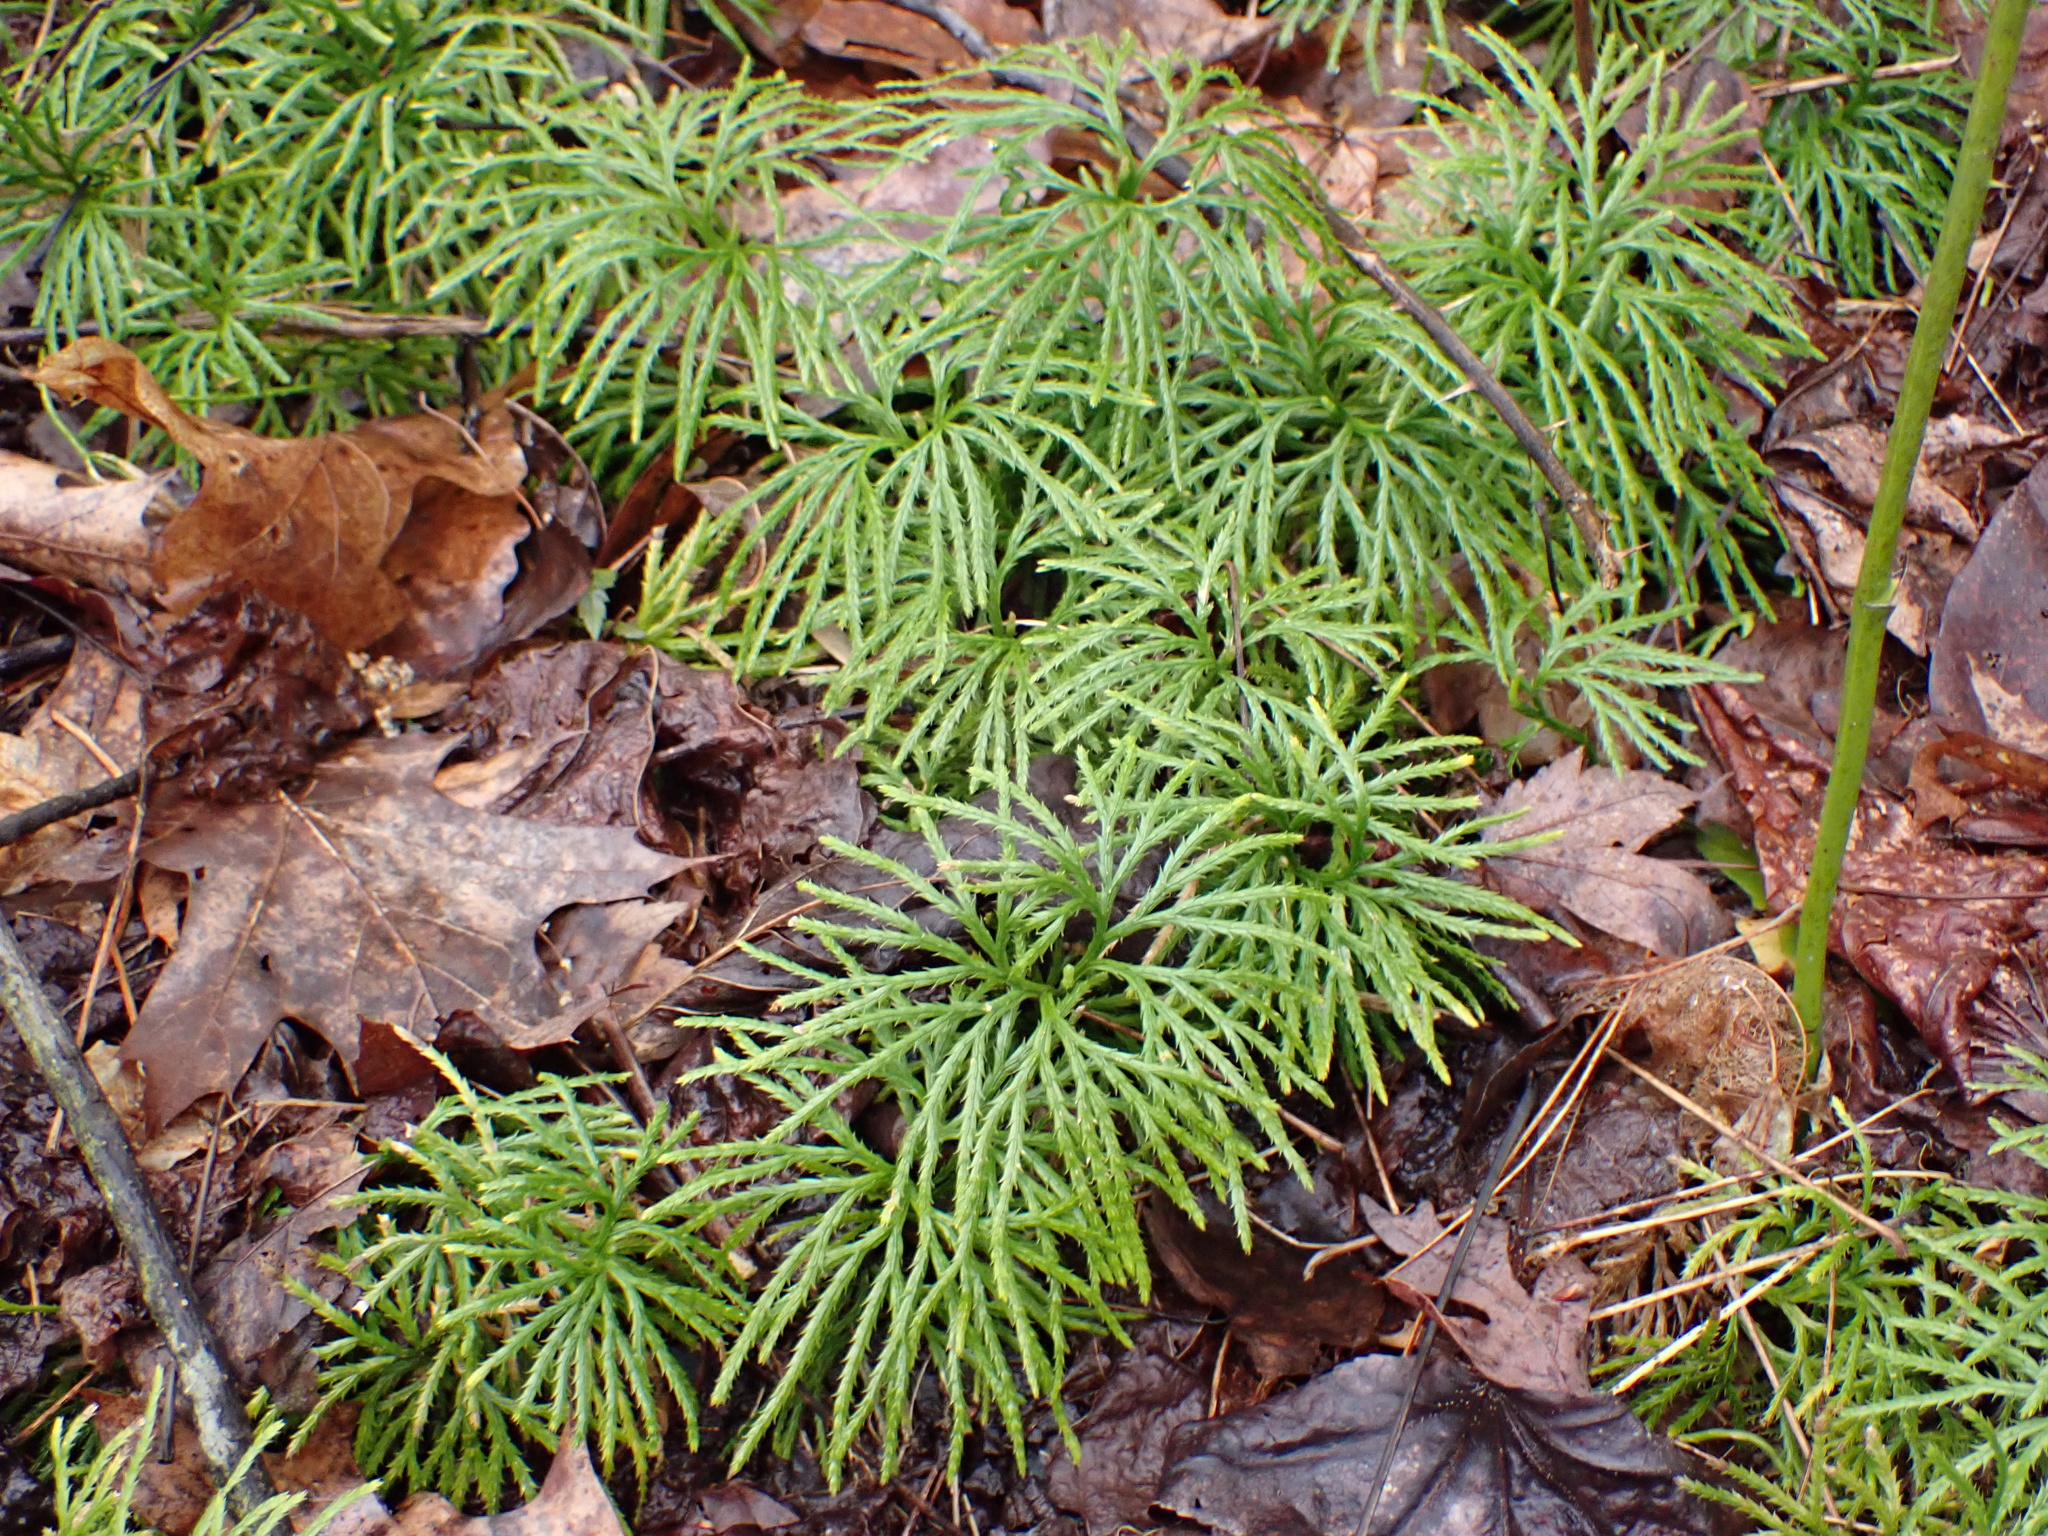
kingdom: Plantae
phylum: Tracheophyta
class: Lycopodiopsida
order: Lycopodiales
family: Lycopodiaceae
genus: Diphasiastrum
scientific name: Diphasiastrum digitatum
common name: Southern running-pine
